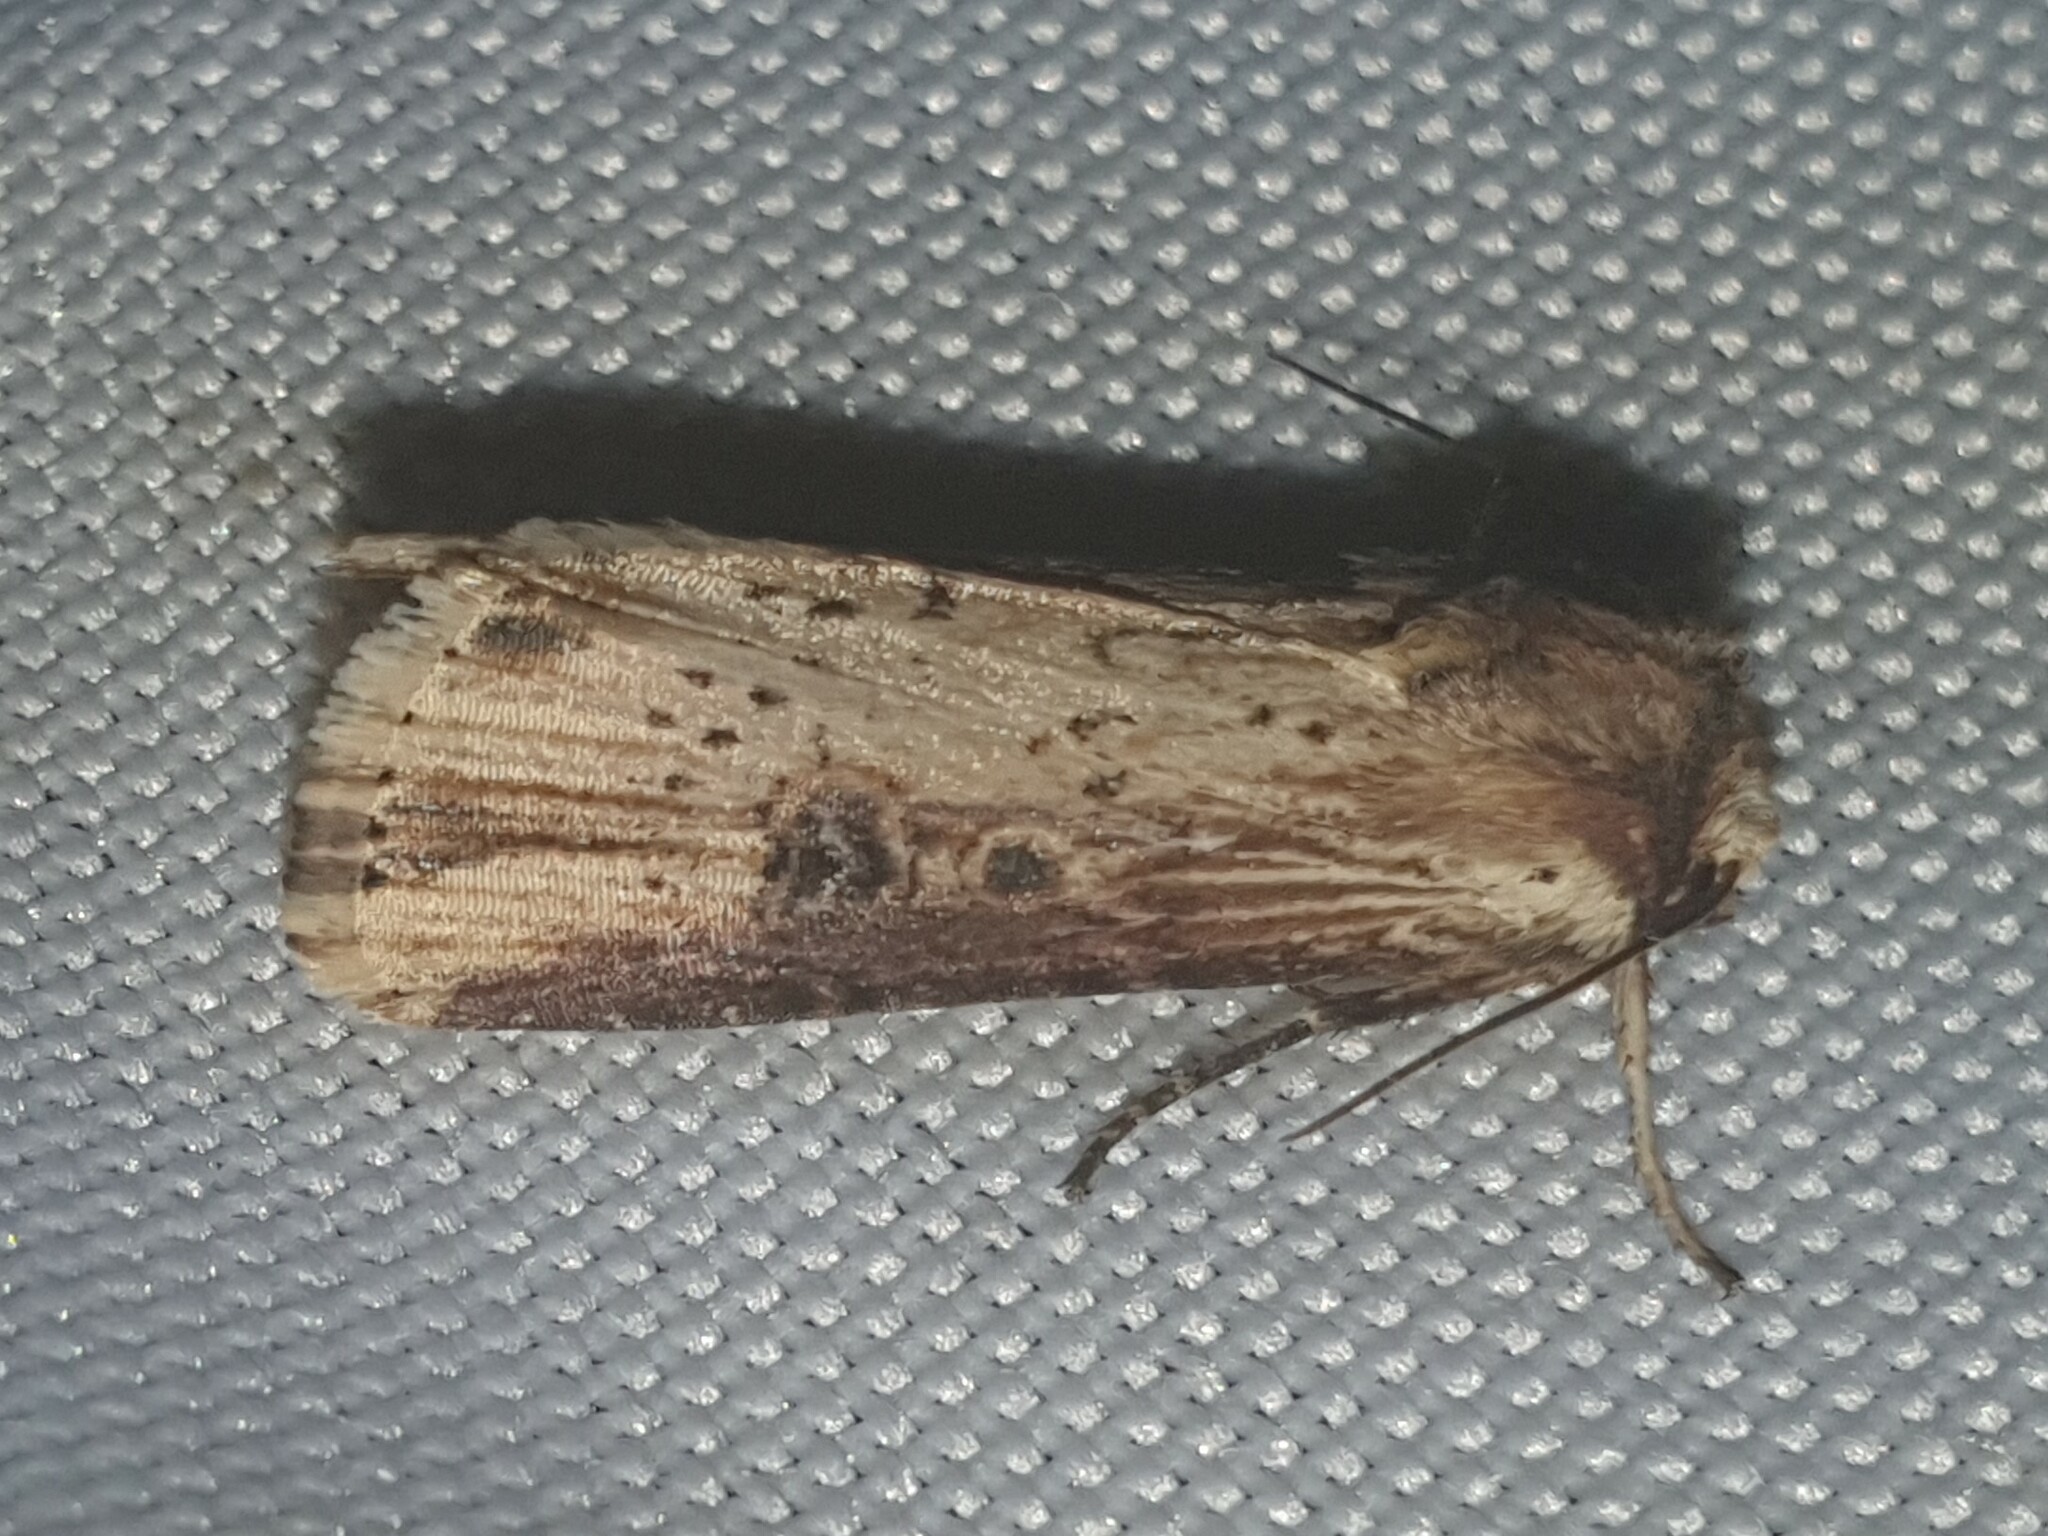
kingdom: Animalia
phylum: Arthropoda
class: Insecta
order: Lepidoptera
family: Noctuidae
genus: Axylia
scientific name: Axylia putris
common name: Flame
